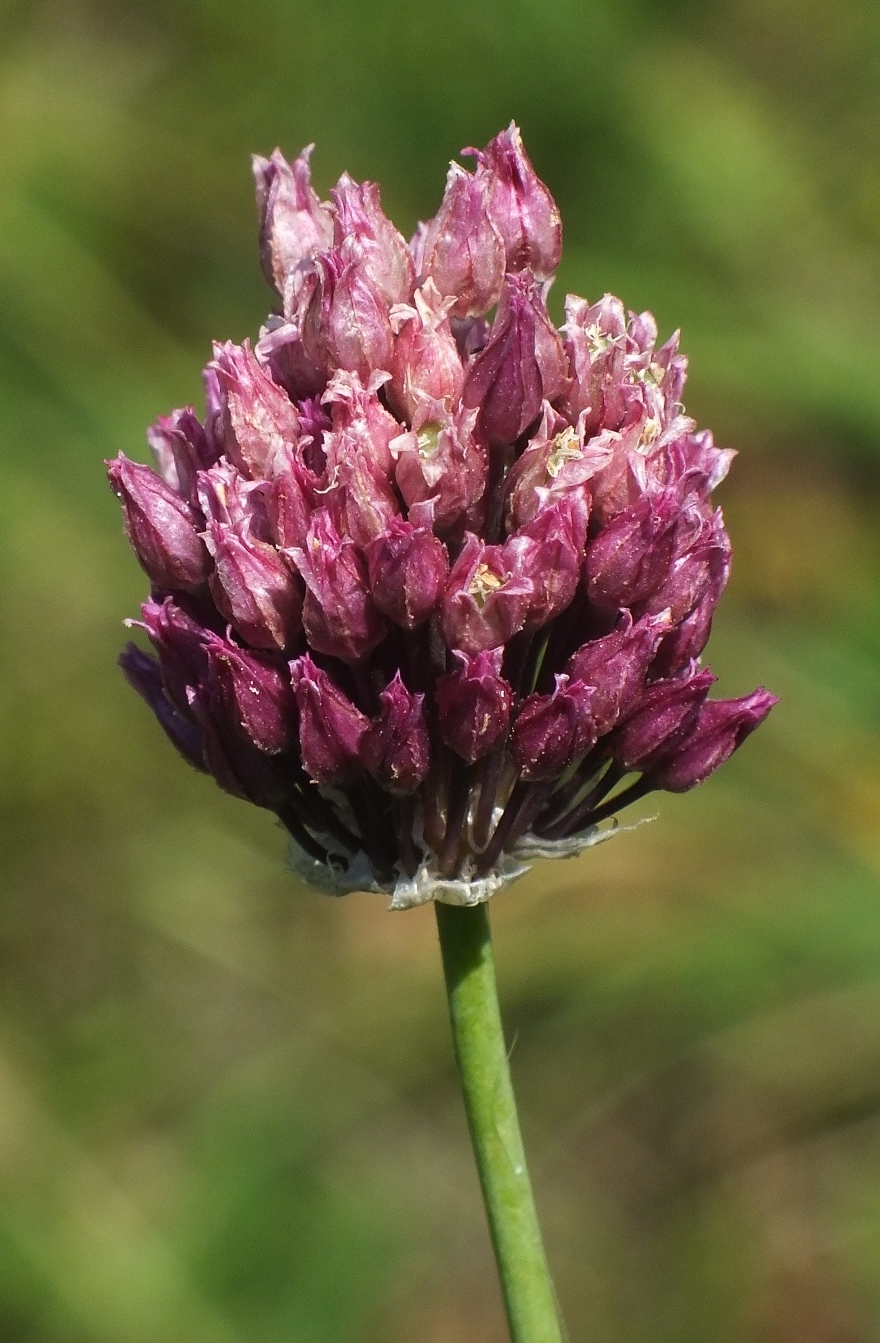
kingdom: Plantae
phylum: Tracheophyta
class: Liliopsida
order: Asparagales
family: Amaryllidaceae
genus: Allium
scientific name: Allium rotundum
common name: Sand leek
